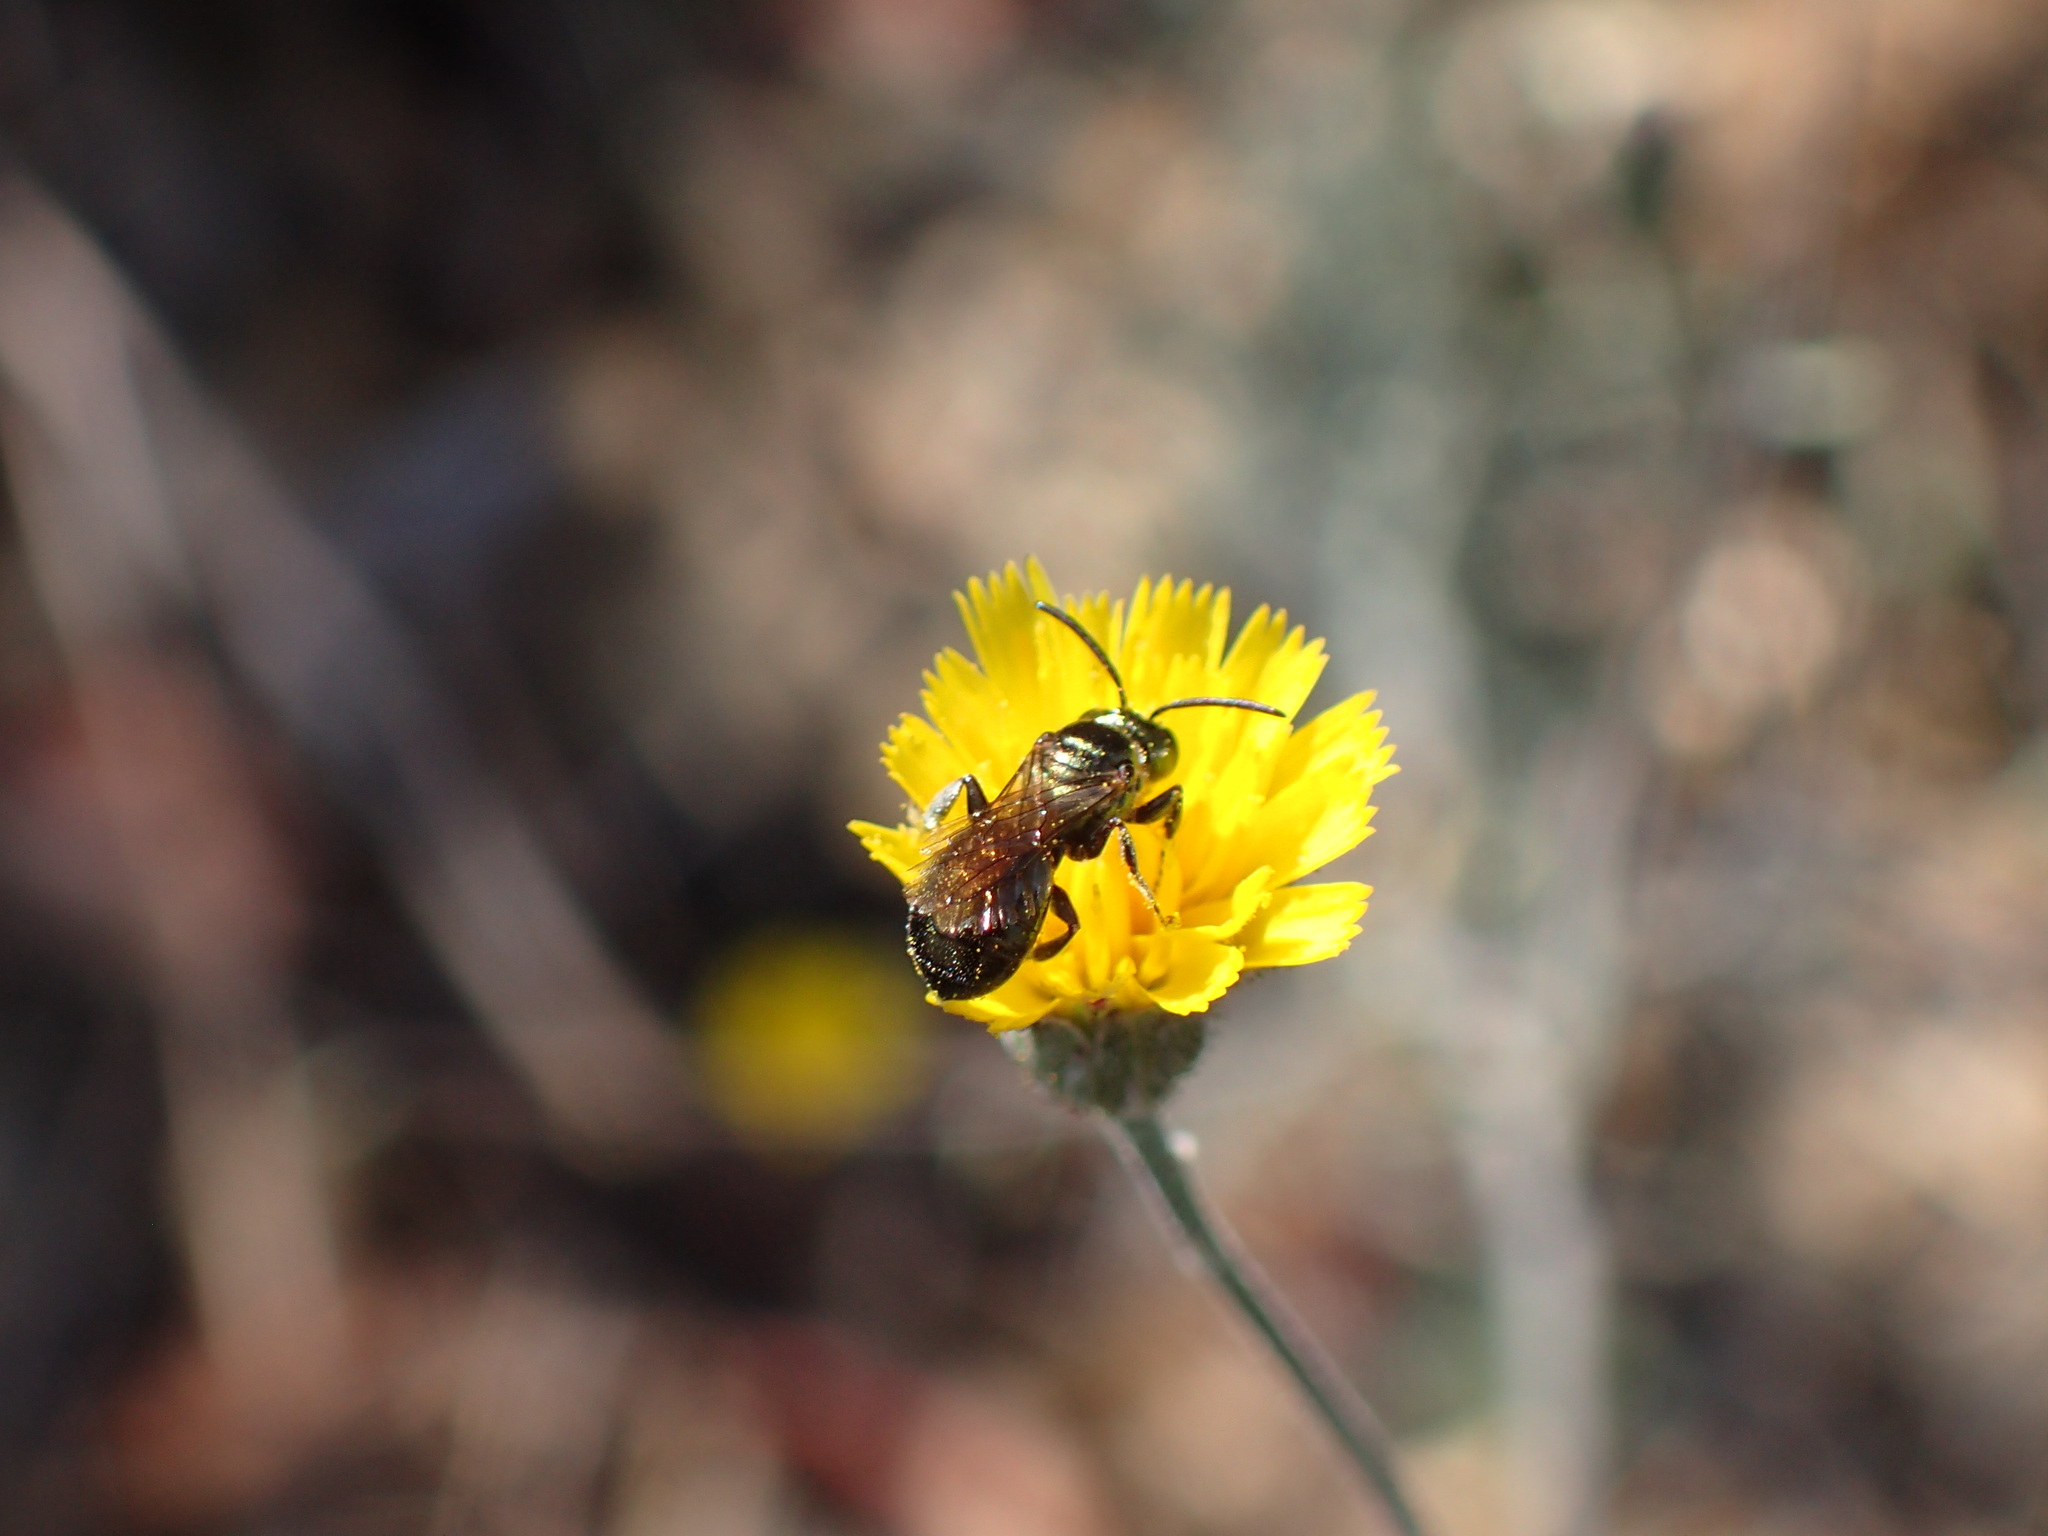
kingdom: Plantae
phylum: Tracheophyta
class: Magnoliopsida
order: Asterales
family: Asteraceae
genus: Hieracium
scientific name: Hieracium argutum
